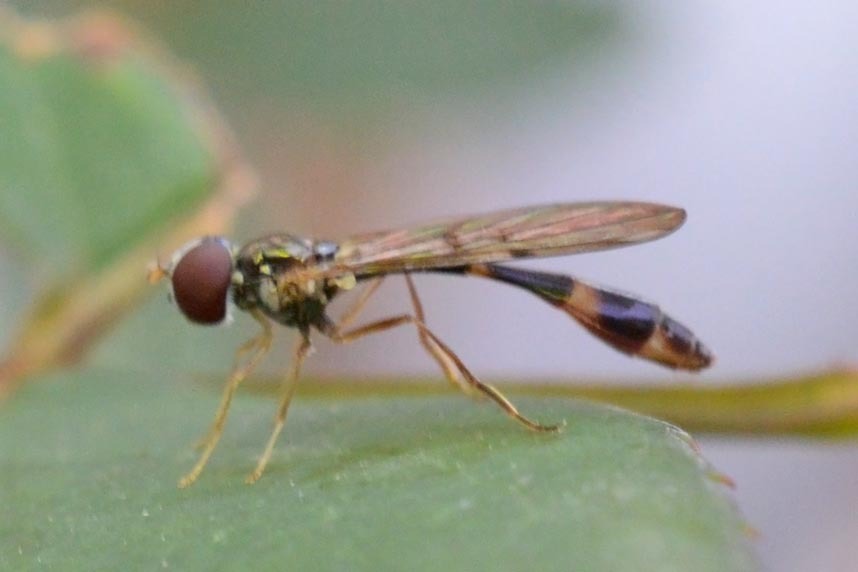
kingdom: Animalia
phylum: Arthropoda
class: Insecta
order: Diptera
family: Syrphidae
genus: Baccha
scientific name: Baccha elongata
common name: Common dainty
